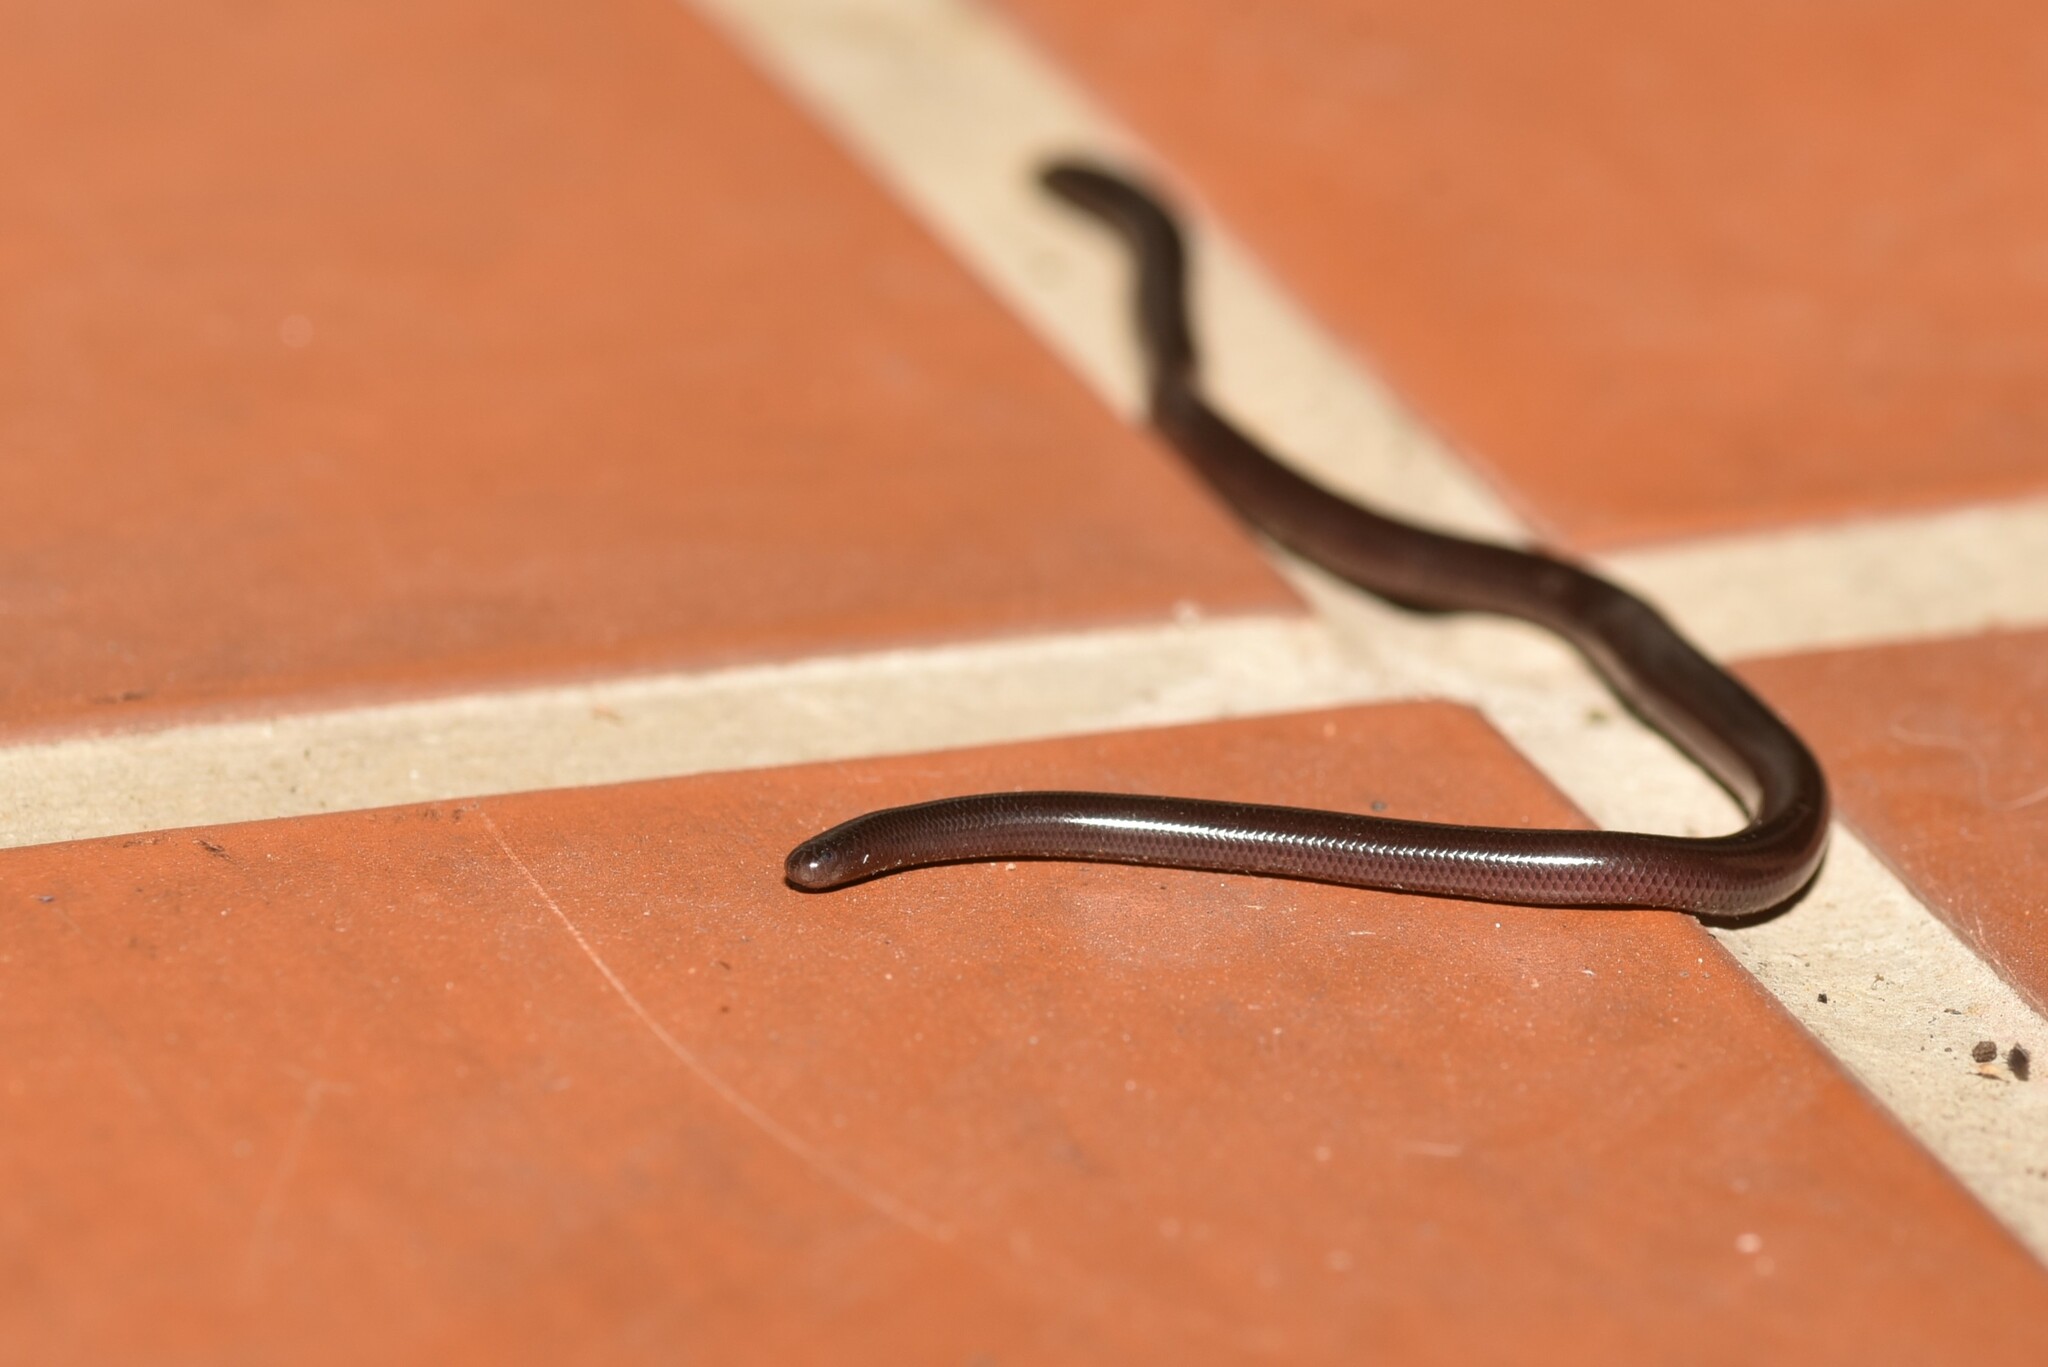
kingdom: Animalia
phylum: Chordata
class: Squamata
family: Typhlopidae
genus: Indotyphlops
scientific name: Indotyphlops braminus
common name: Brahminy blindsnake
